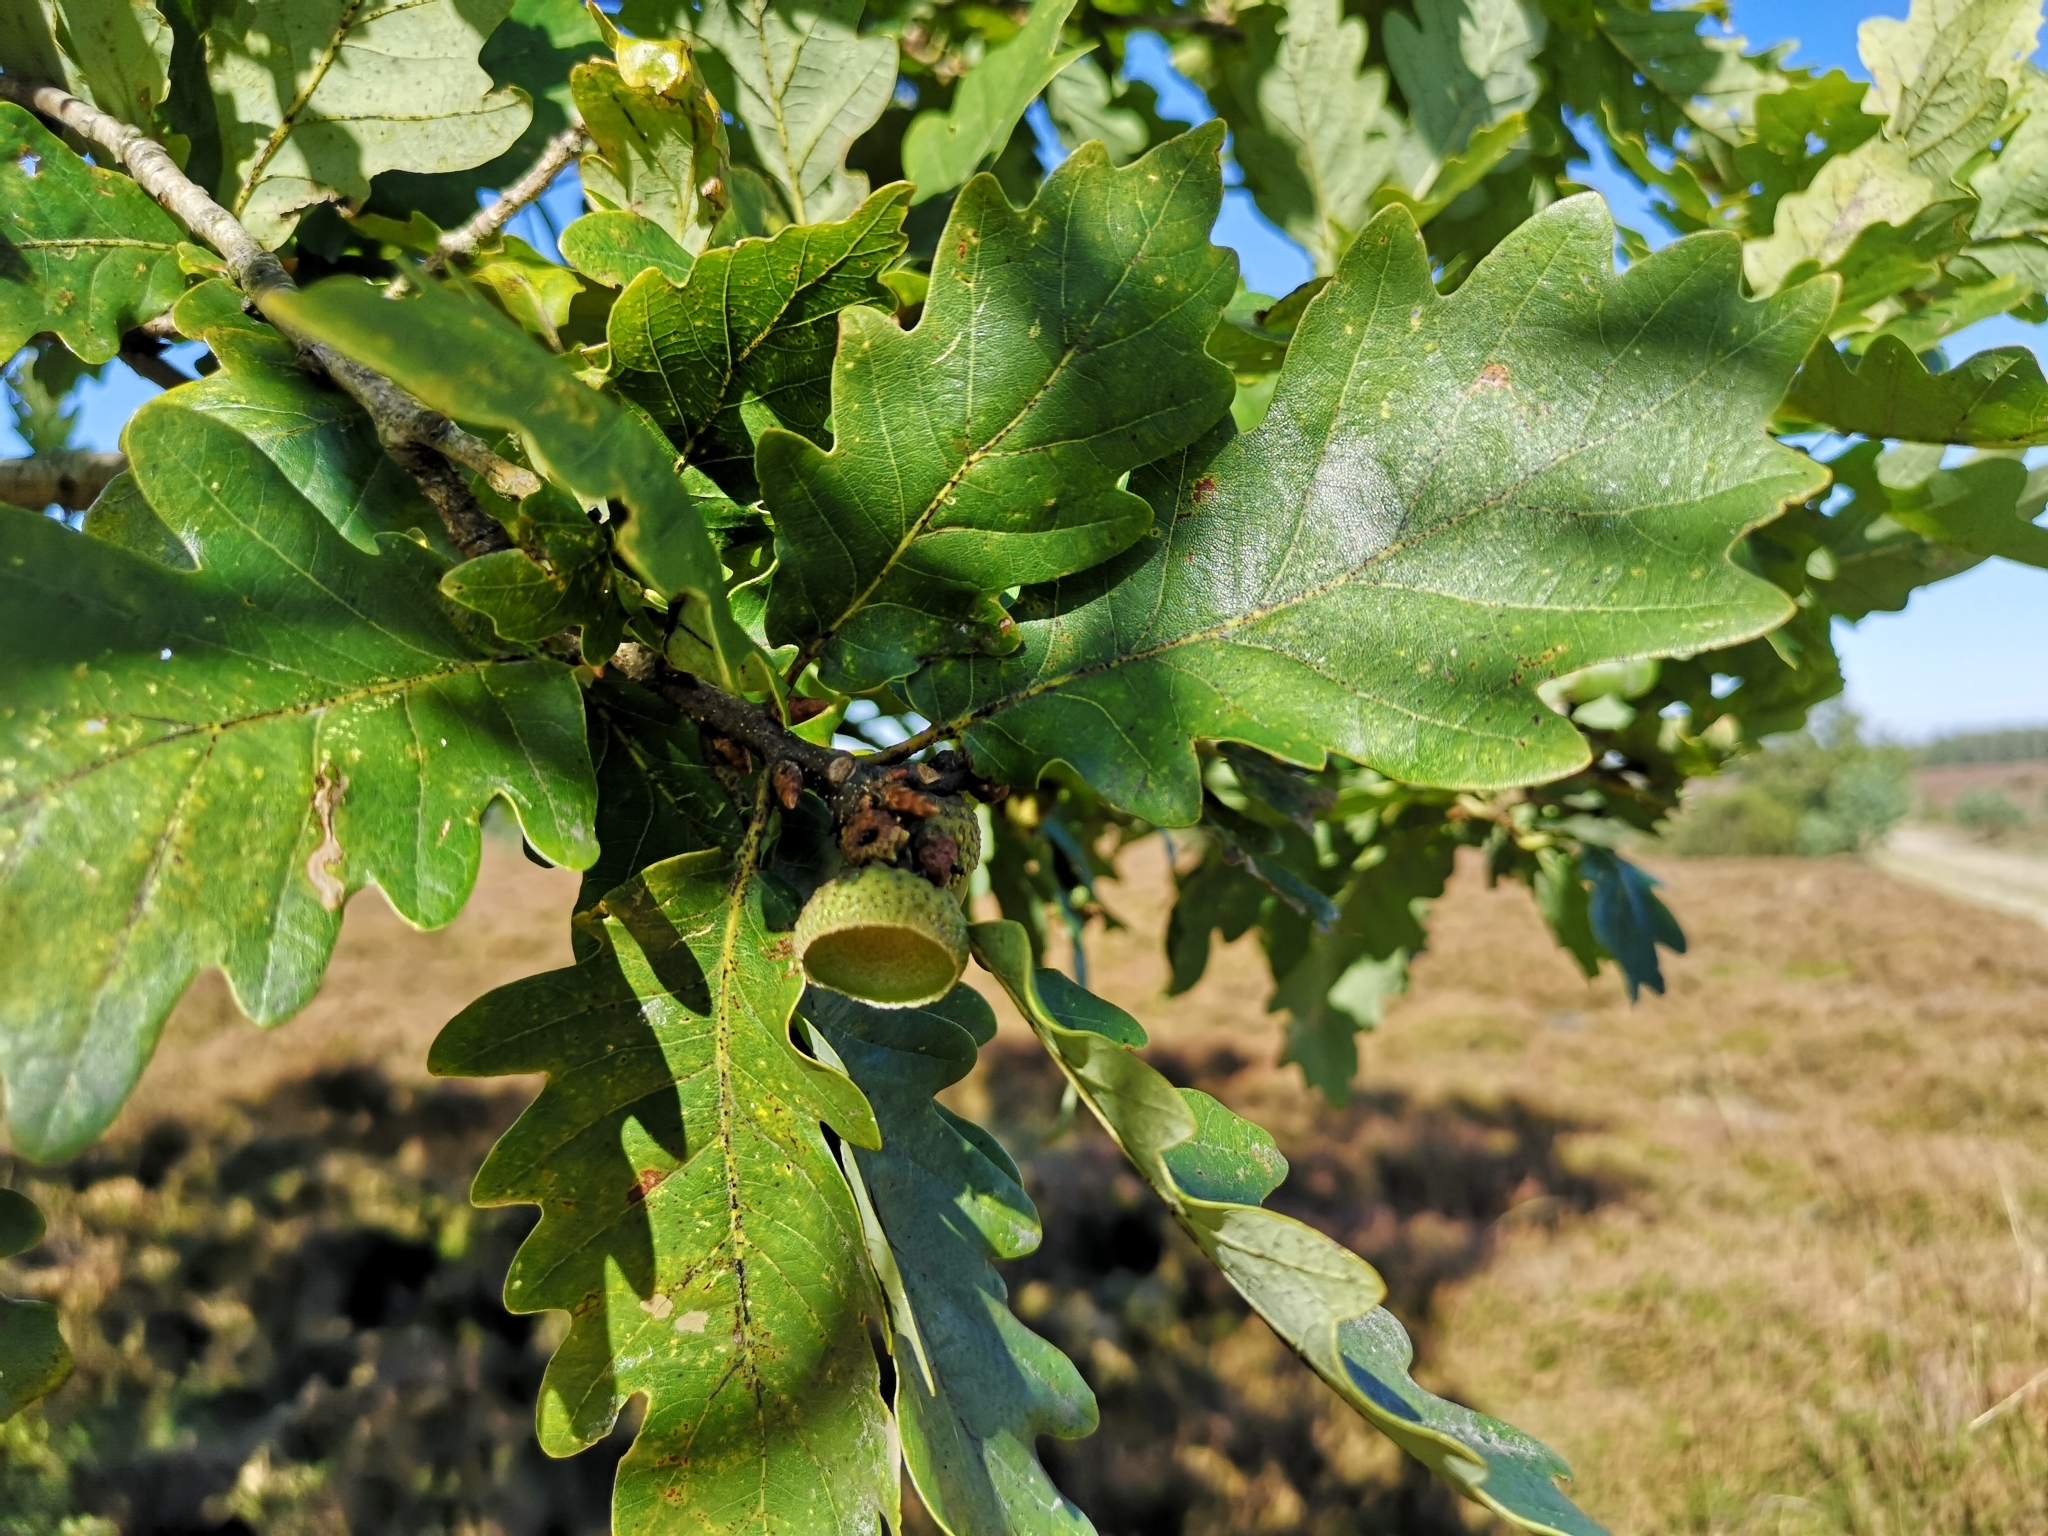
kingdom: Plantae
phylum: Tracheophyta
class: Magnoliopsida
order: Fagales
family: Fagaceae
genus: Quercus
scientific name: Quercus petraea
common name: Sessile oak
